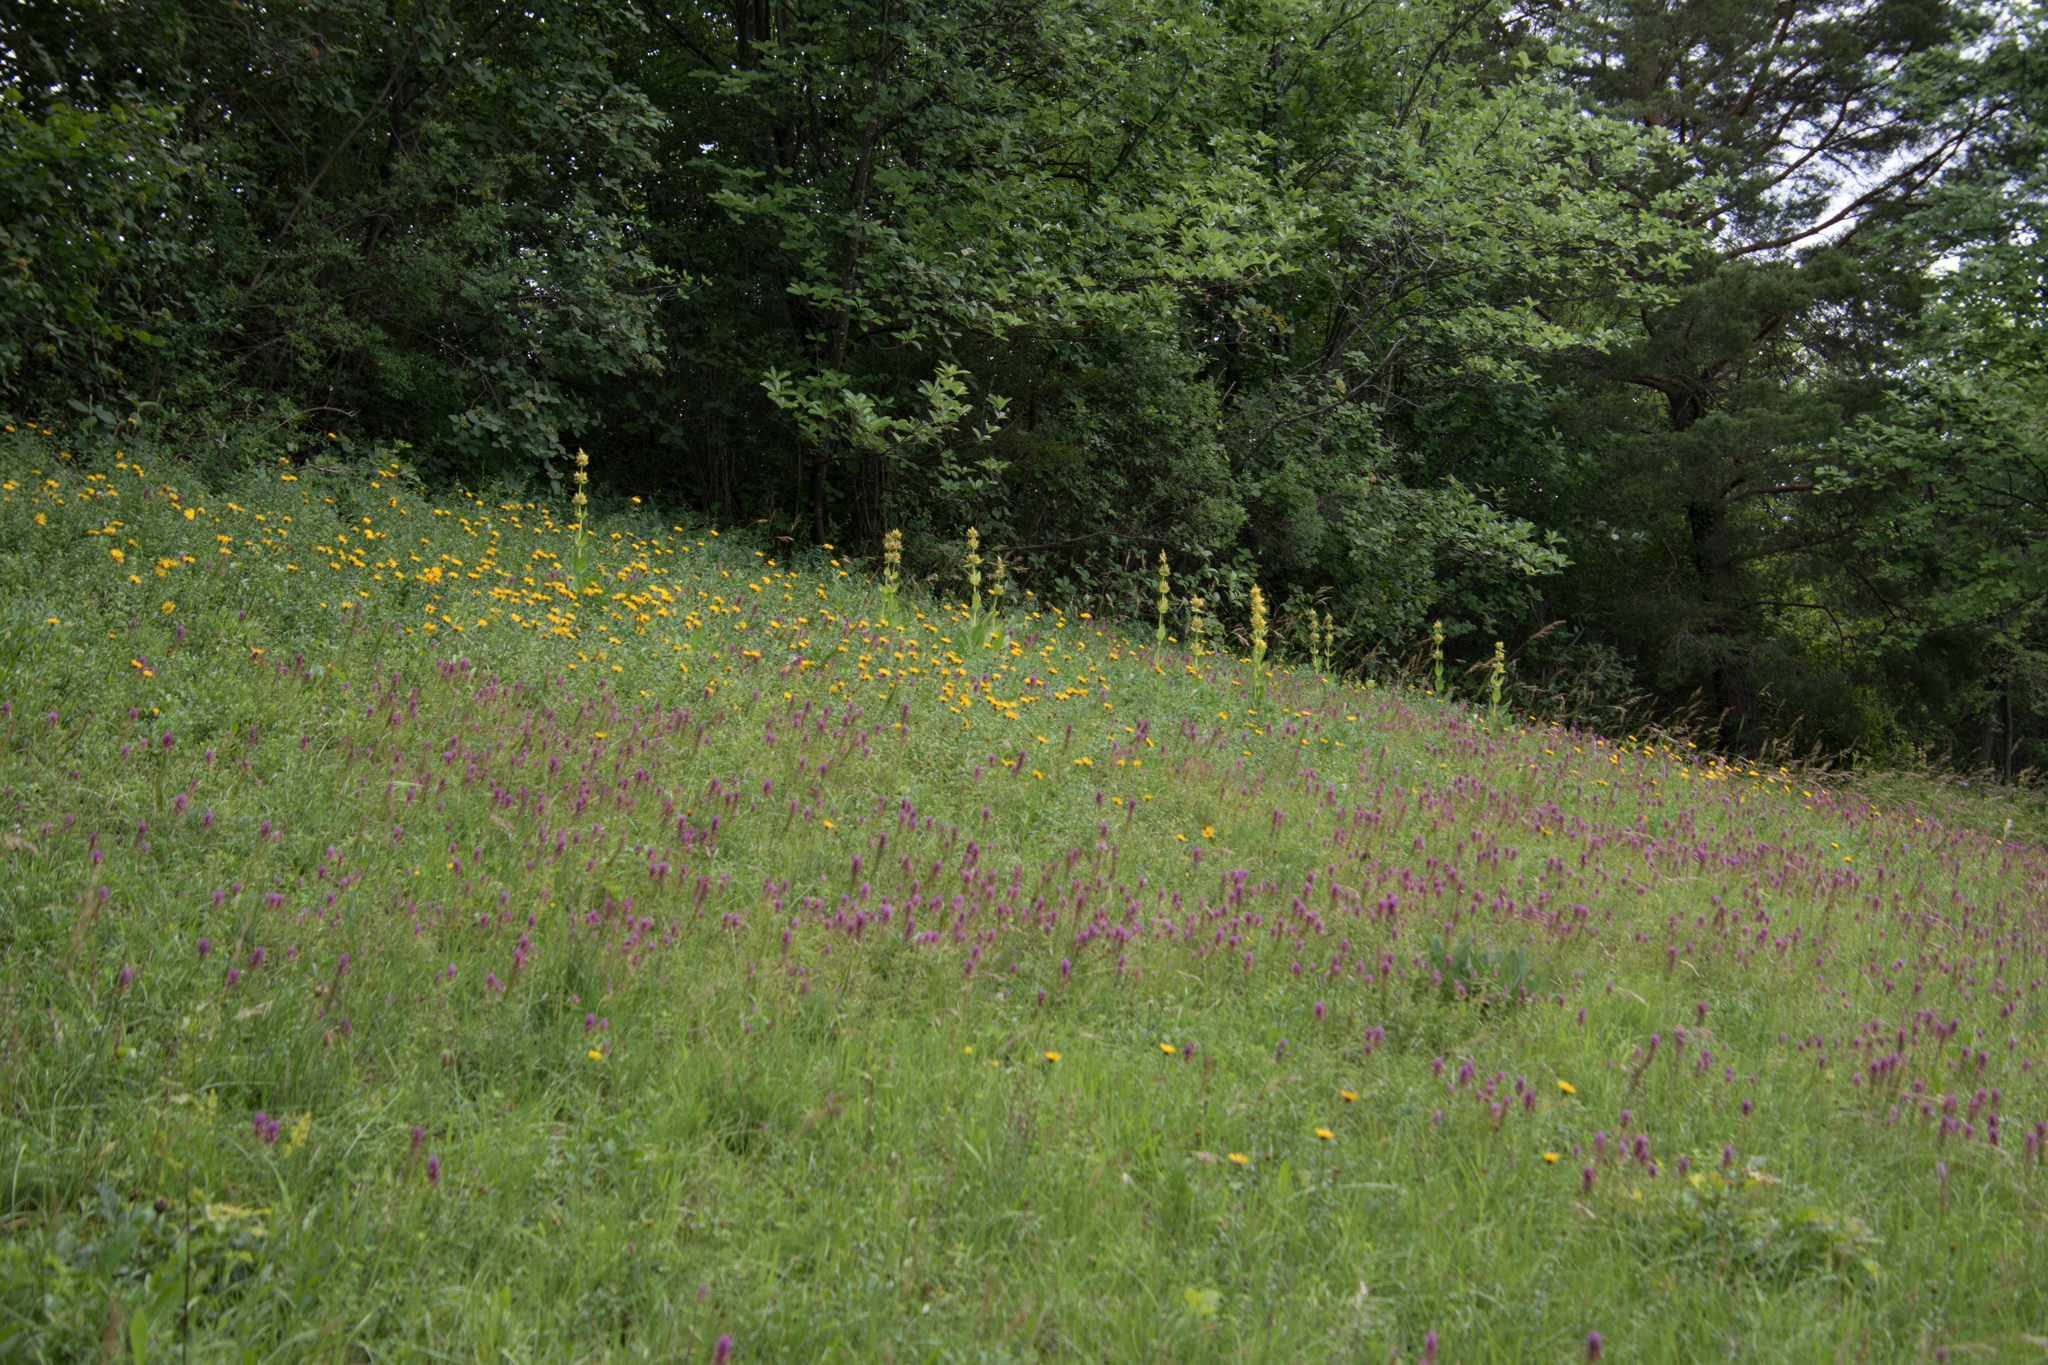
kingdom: Plantae
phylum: Tracheophyta
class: Magnoliopsida
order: Gentianales
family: Gentianaceae
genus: Gentiana
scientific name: Gentiana lutea
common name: Great yellow gentian
